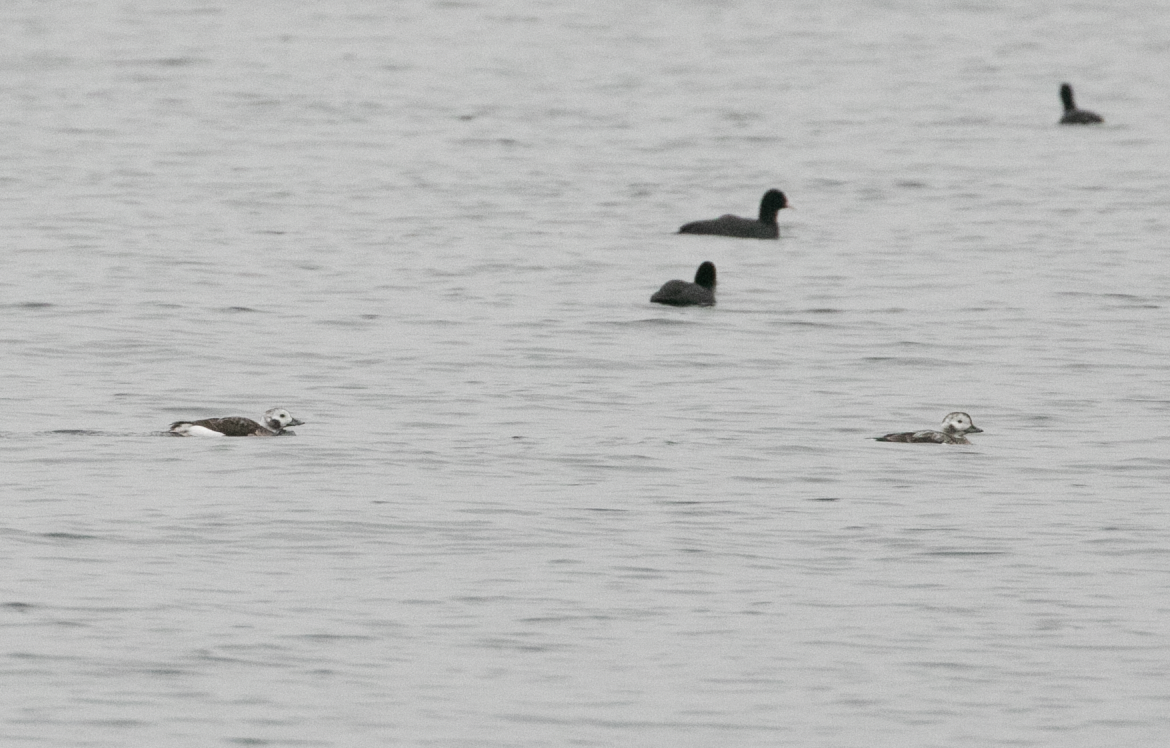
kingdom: Animalia
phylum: Chordata
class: Aves
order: Anseriformes
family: Anatidae
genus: Clangula
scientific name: Clangula hyemalis
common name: Long-tailed duck
